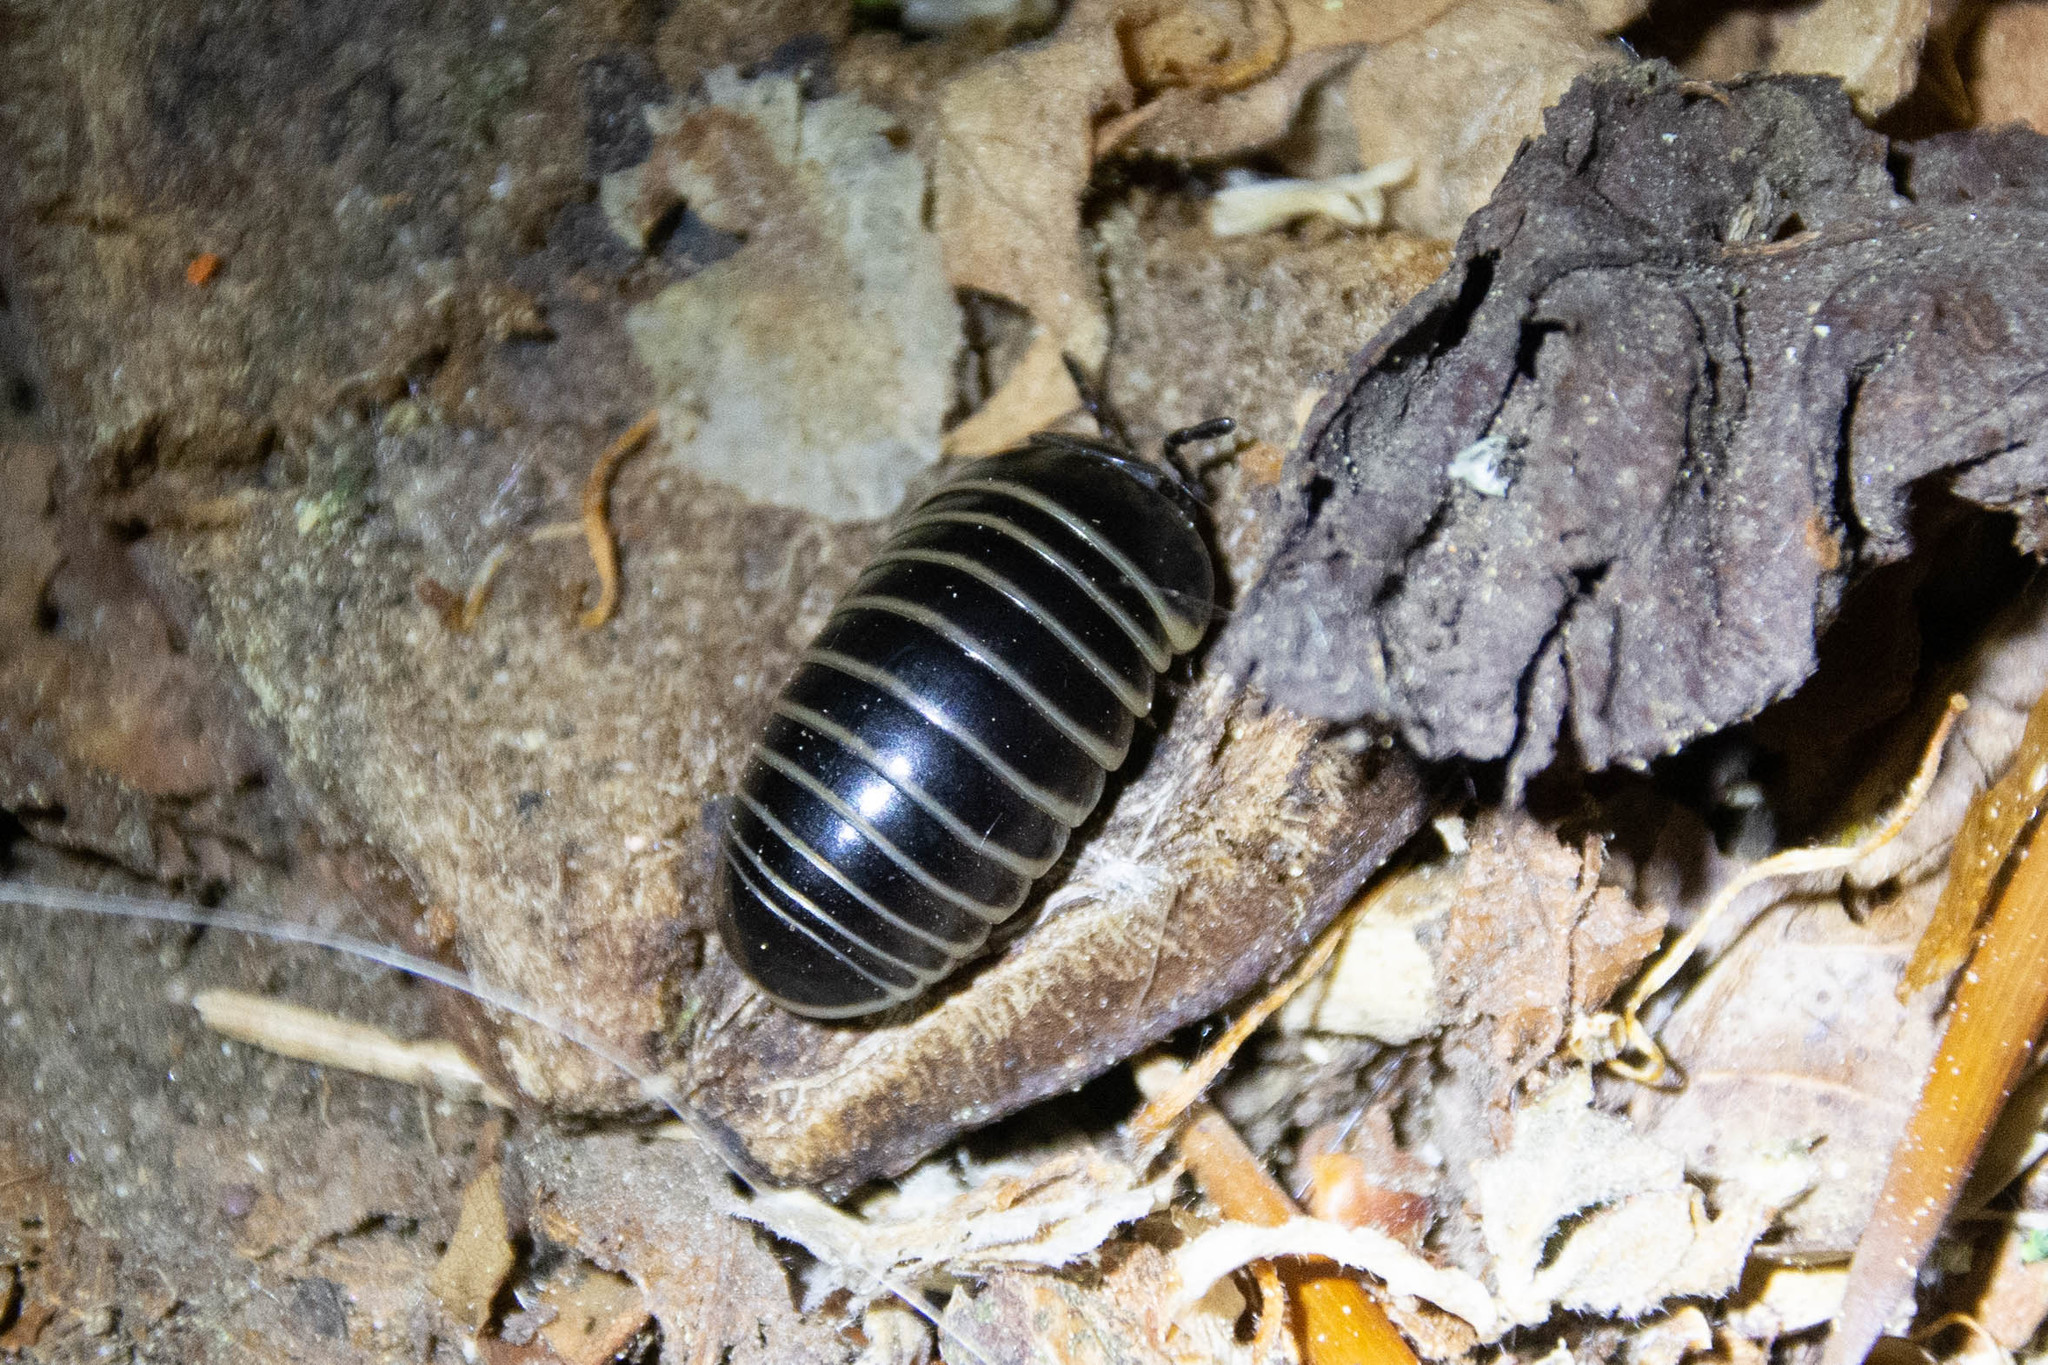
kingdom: Animalia
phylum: Arthropoda
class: Diplopoda
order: Glomerida
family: Glomeridae
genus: Glomeris
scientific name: Glomeris marginata
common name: Bordered pill millipede
